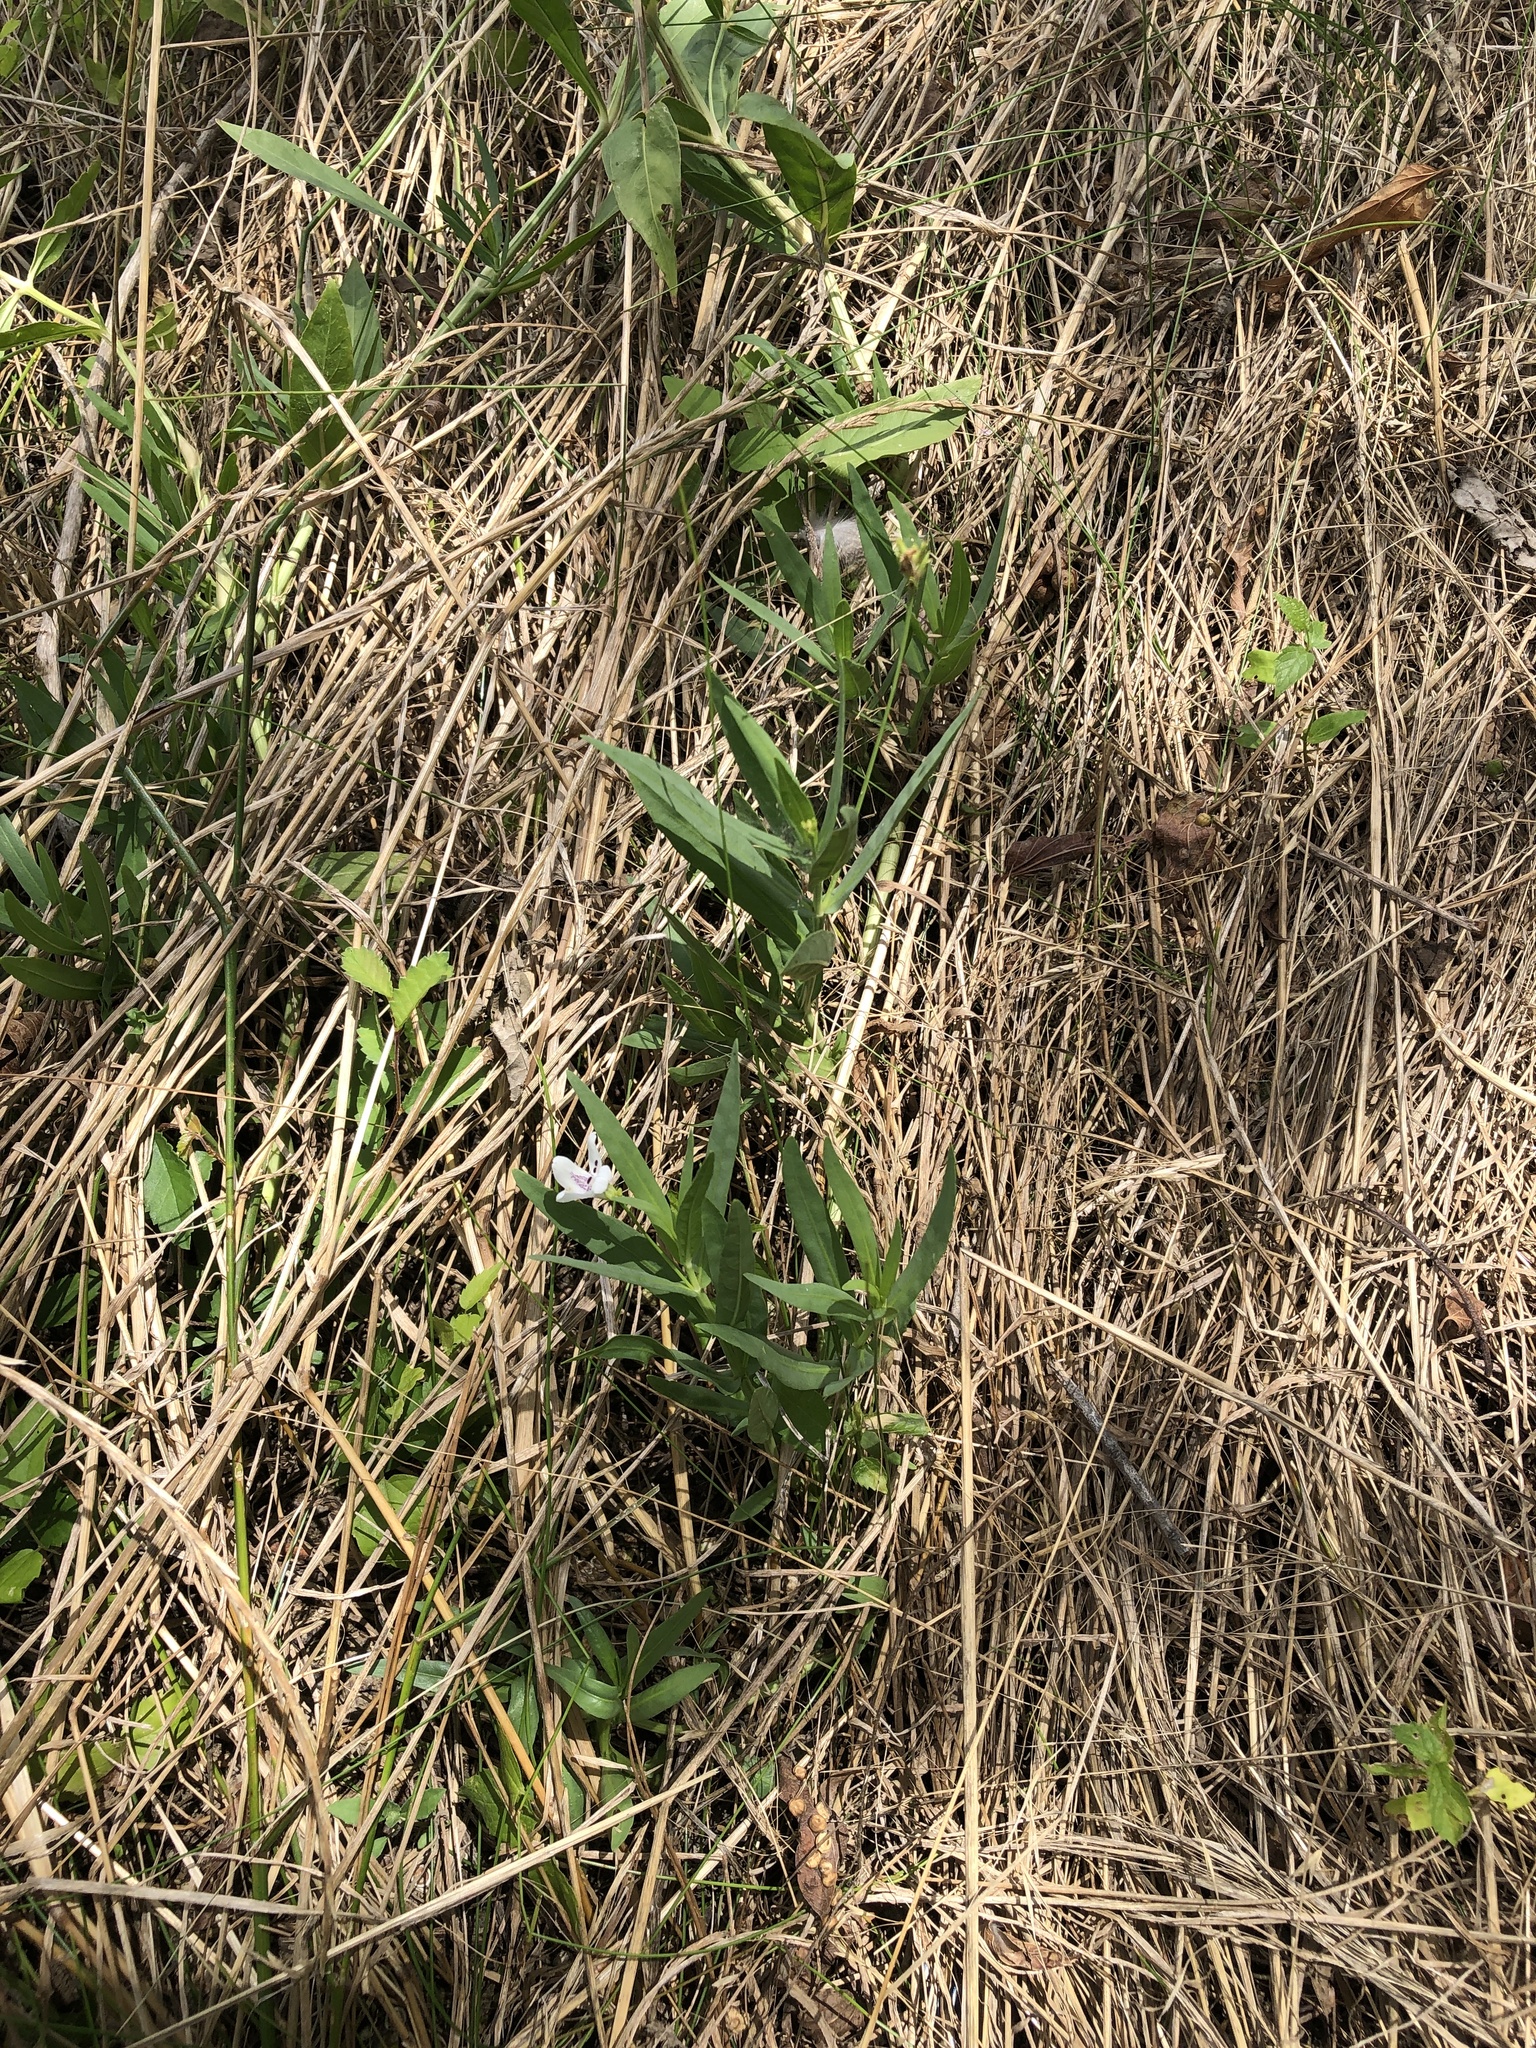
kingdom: Plantae
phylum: Tracheophyta
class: Magnoliopsida
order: Lamiales
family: Acanthaceae
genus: Dianthera
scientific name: Dianthera americana
